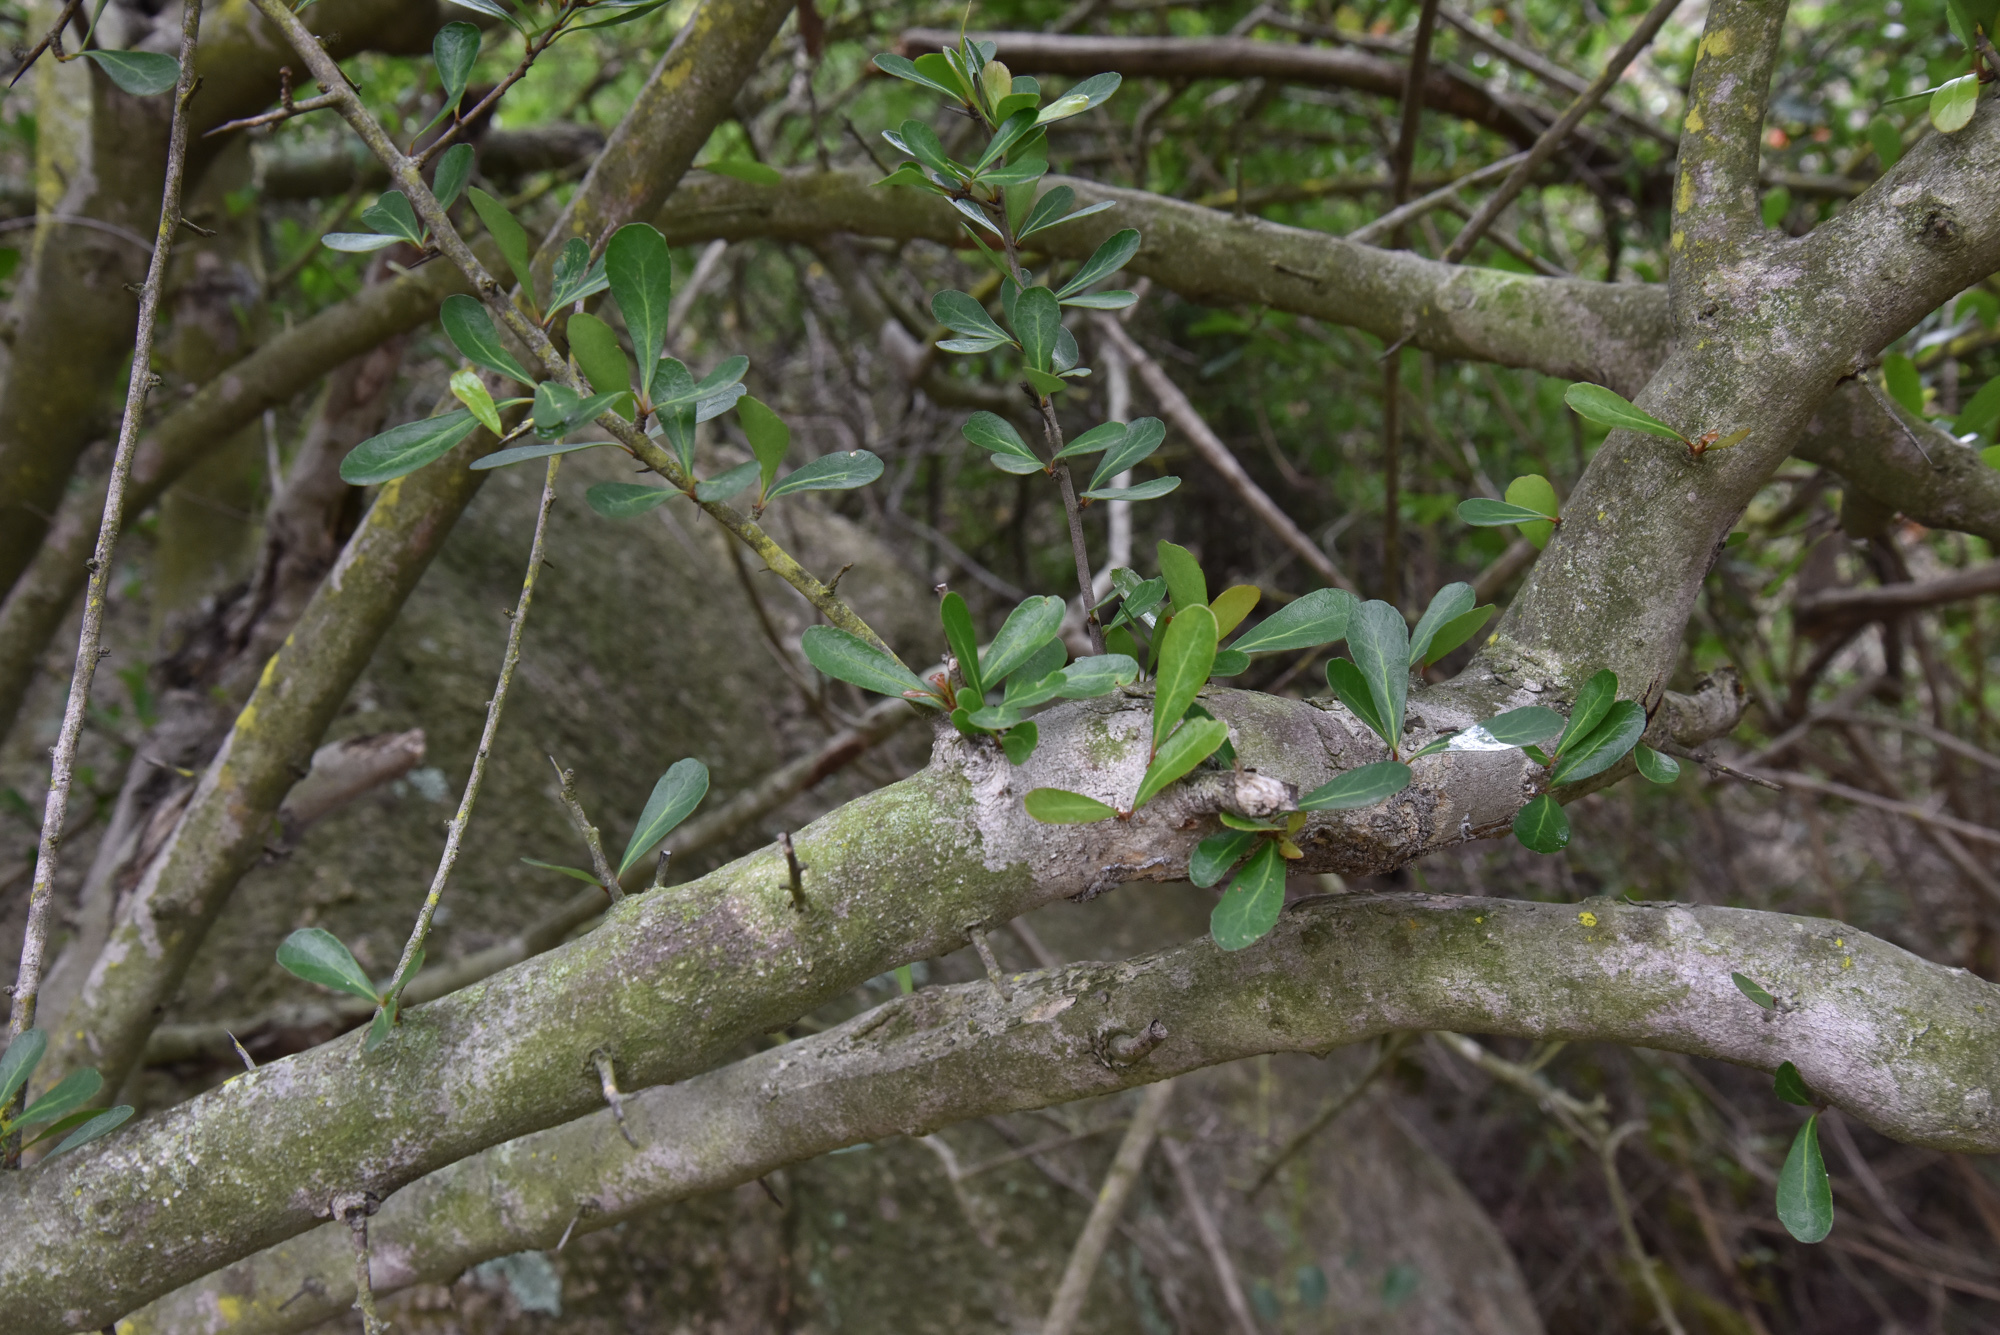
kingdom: Plantae
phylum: Tracheophyta
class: Magnoliopsida
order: Celastrales
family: Celastraceae
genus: Gymnosporia
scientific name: Gymnosporia diversifolia
